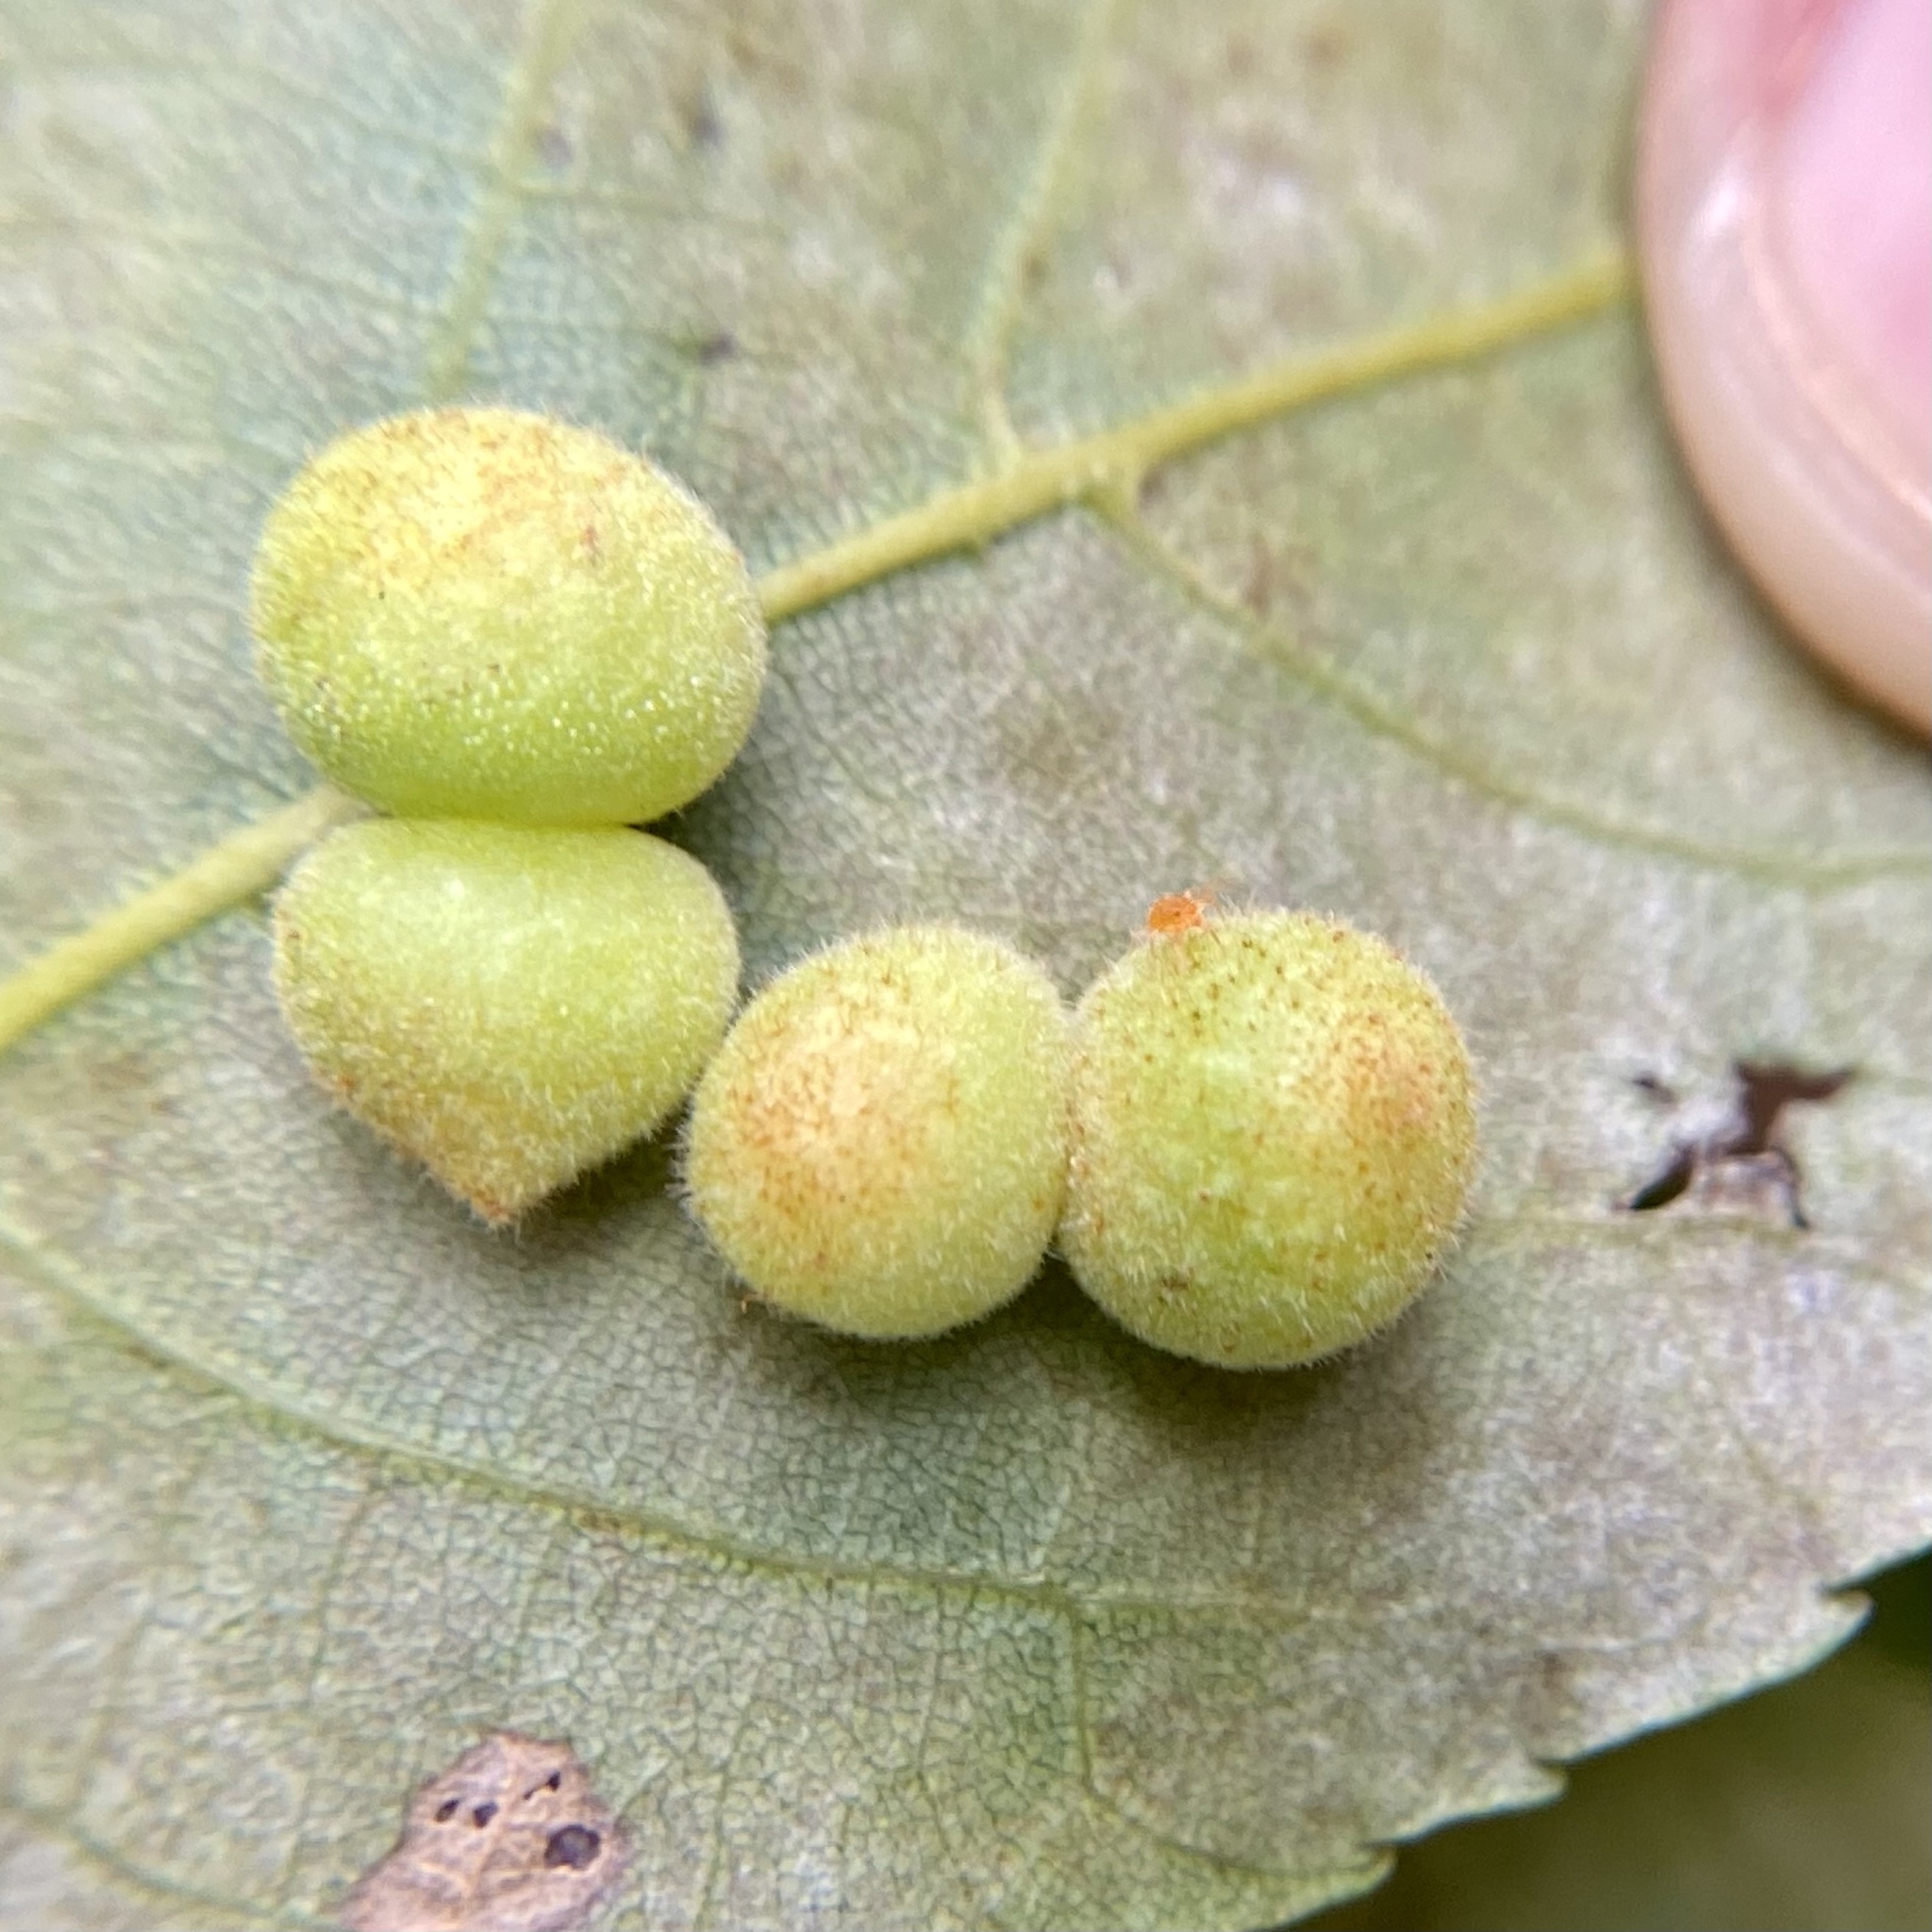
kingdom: Animalia
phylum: Arthropoda
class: Insecta
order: Diptera
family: Cecidomyiidae
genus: Caryomyia
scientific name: Caryomyia persicoides
